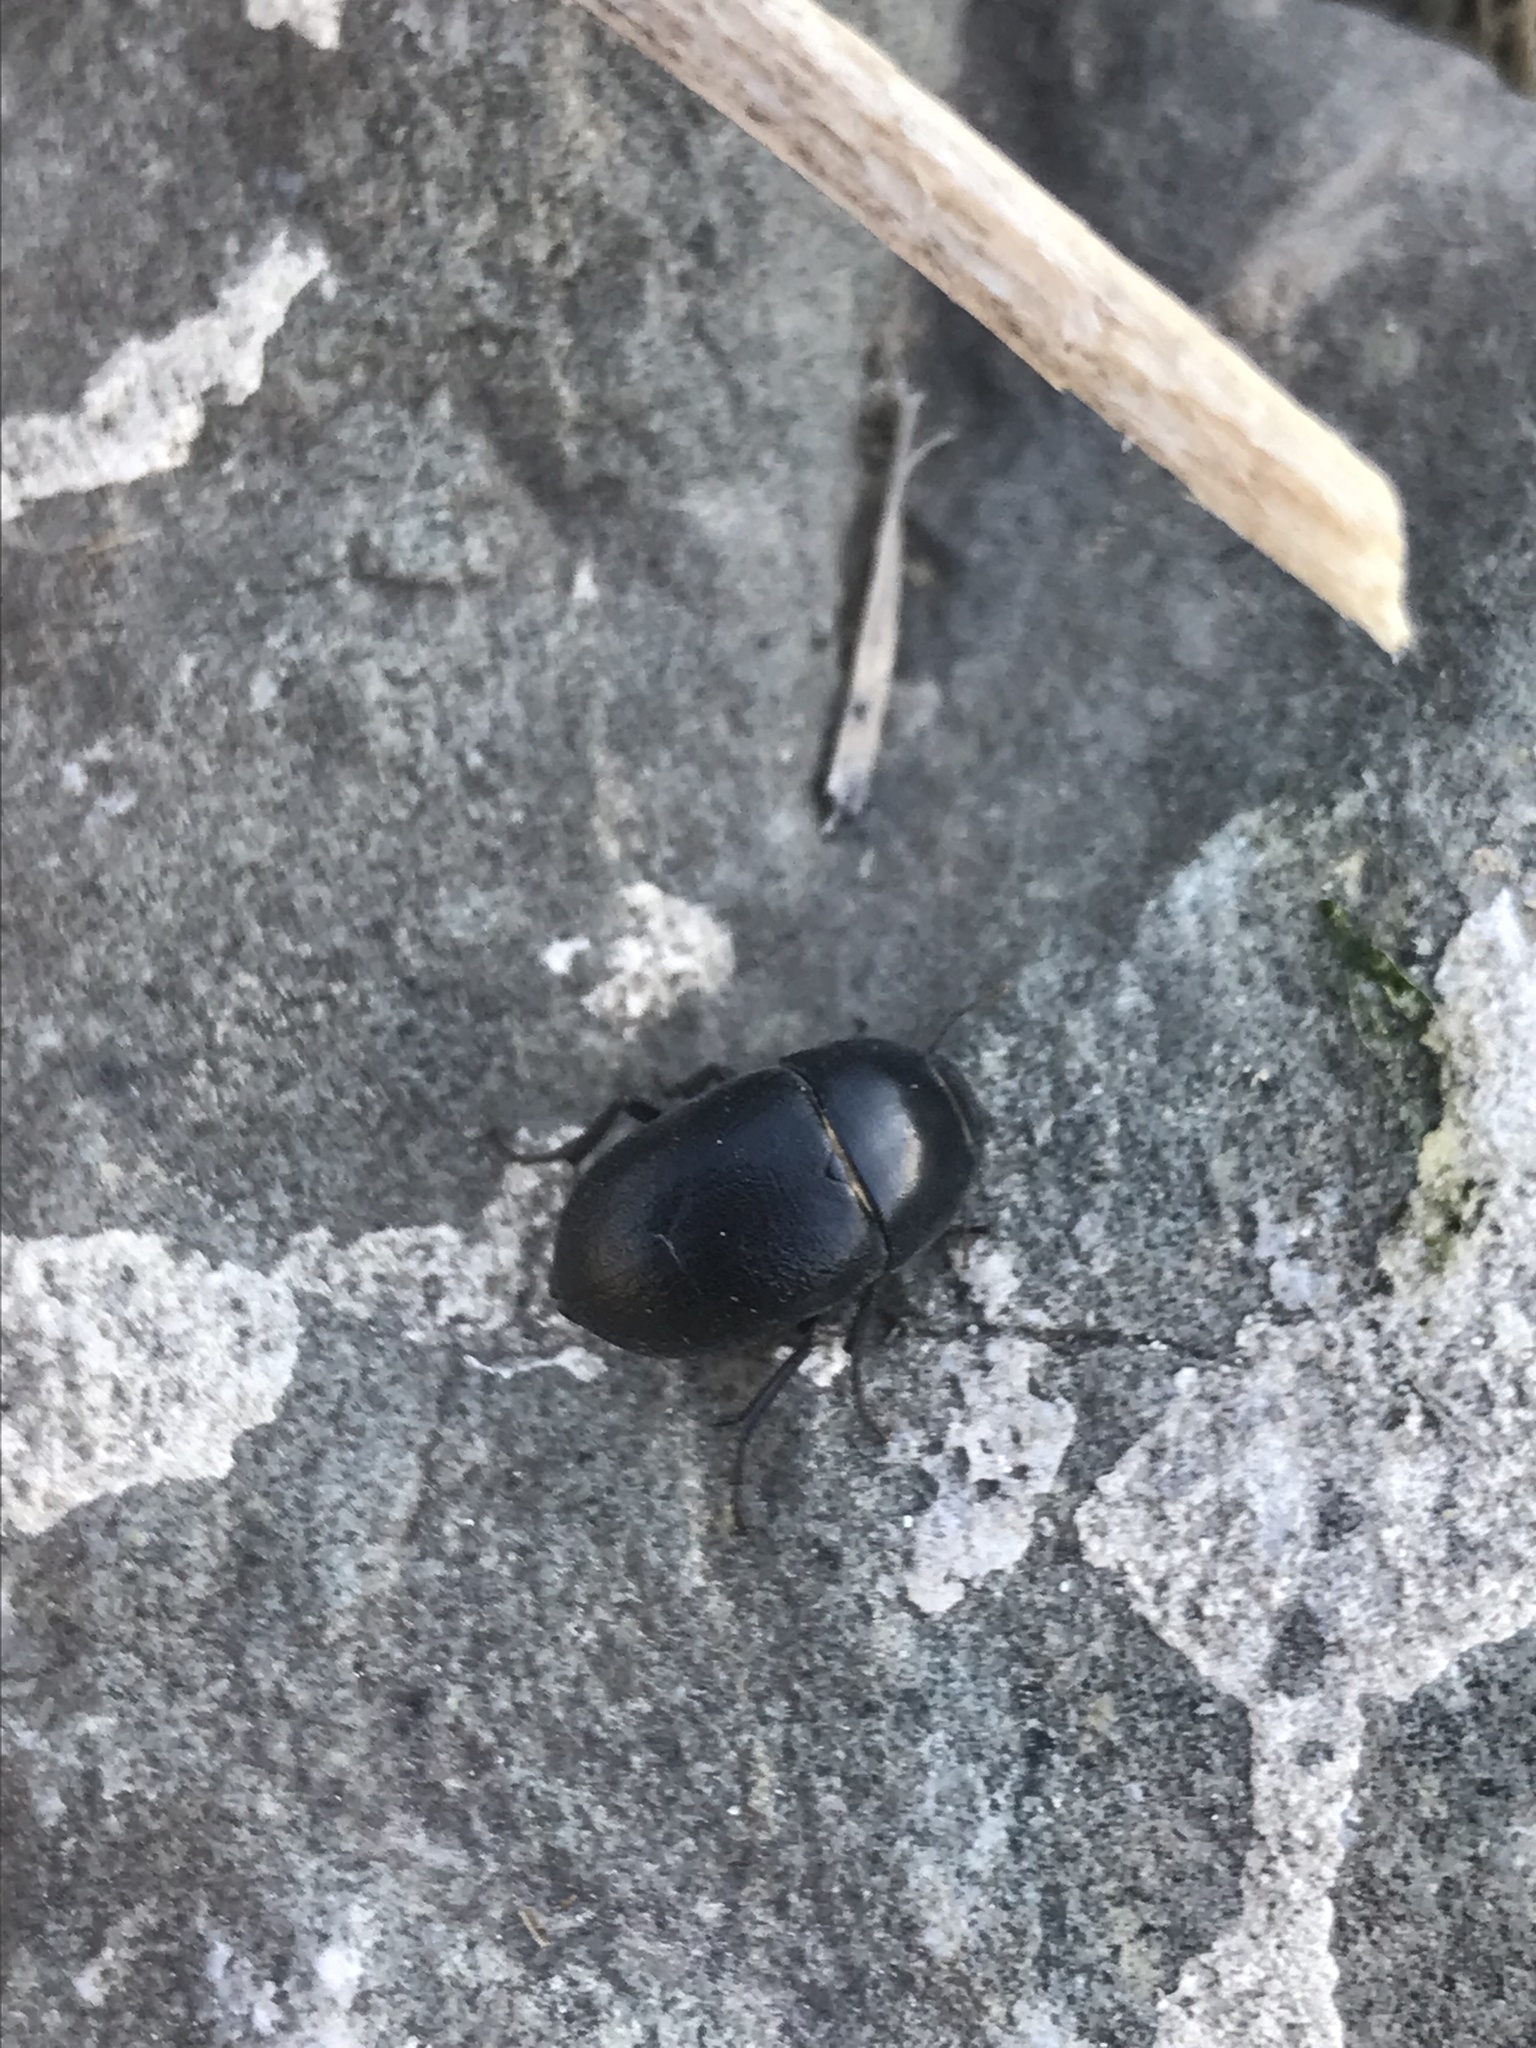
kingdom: Animalia
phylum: Arthropoda
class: Insecta
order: Coleoptera
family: Tenebrionidae
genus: Coniontis
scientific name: Coniontis ovalis
